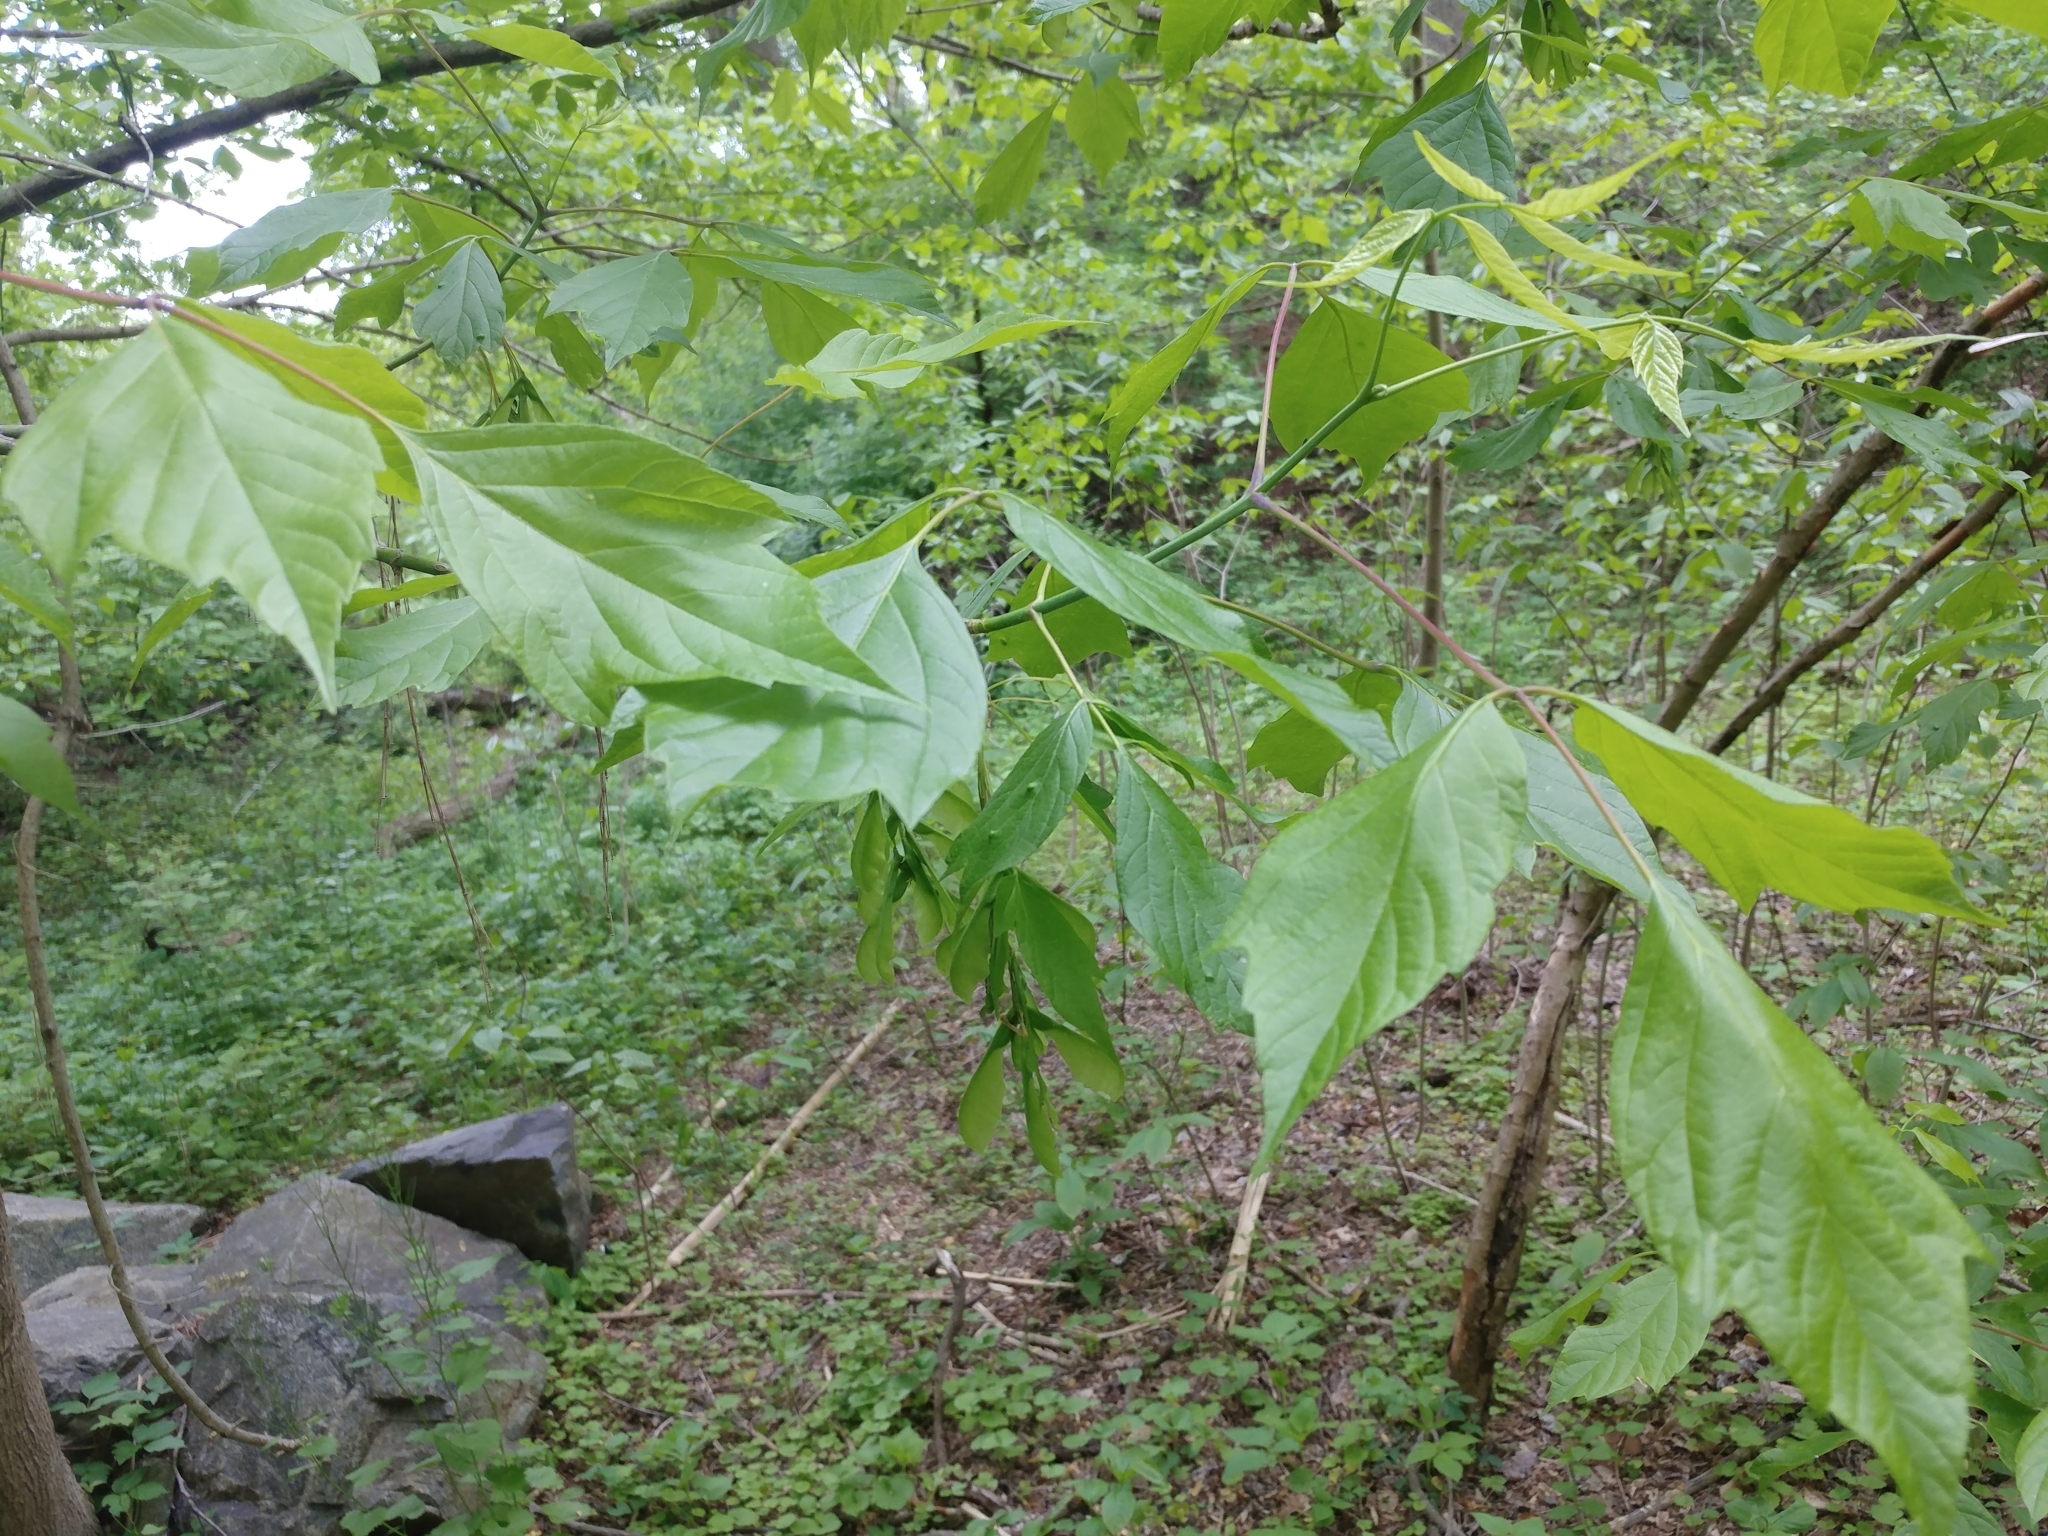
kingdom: Plantae
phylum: Tracheophyta
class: Magnoliopsida
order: Sapindales
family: Sapindaceae
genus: Acer
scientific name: Acer negundo
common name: Ashleaf maple
